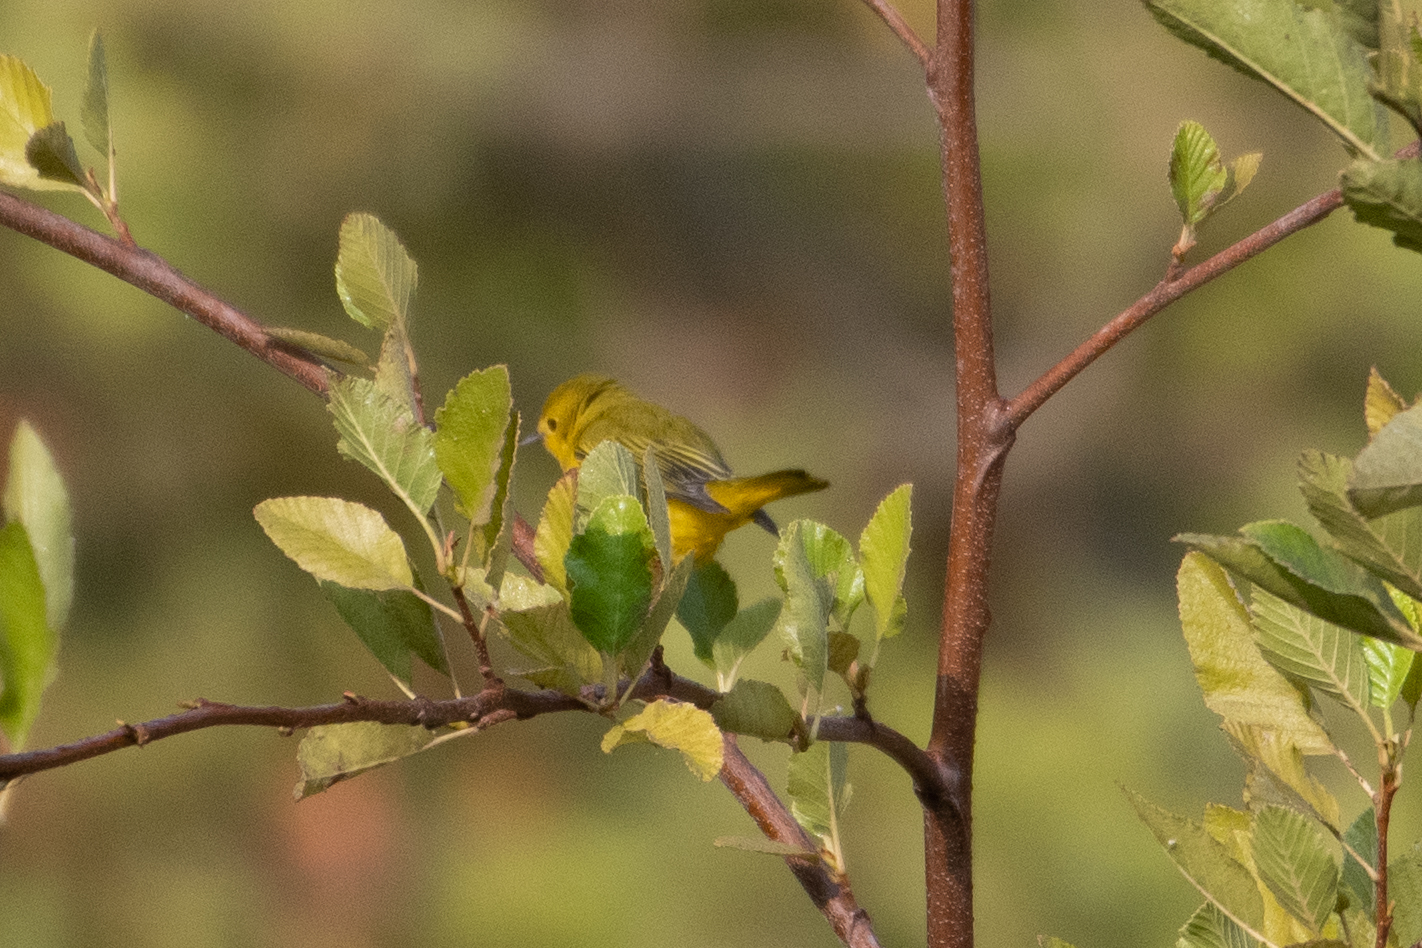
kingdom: Animalia
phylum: Chordata
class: Aves
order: Passeriformes
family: Parulidae
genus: Cardellina
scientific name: Cardellina pusilla
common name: Wilson's warbler
